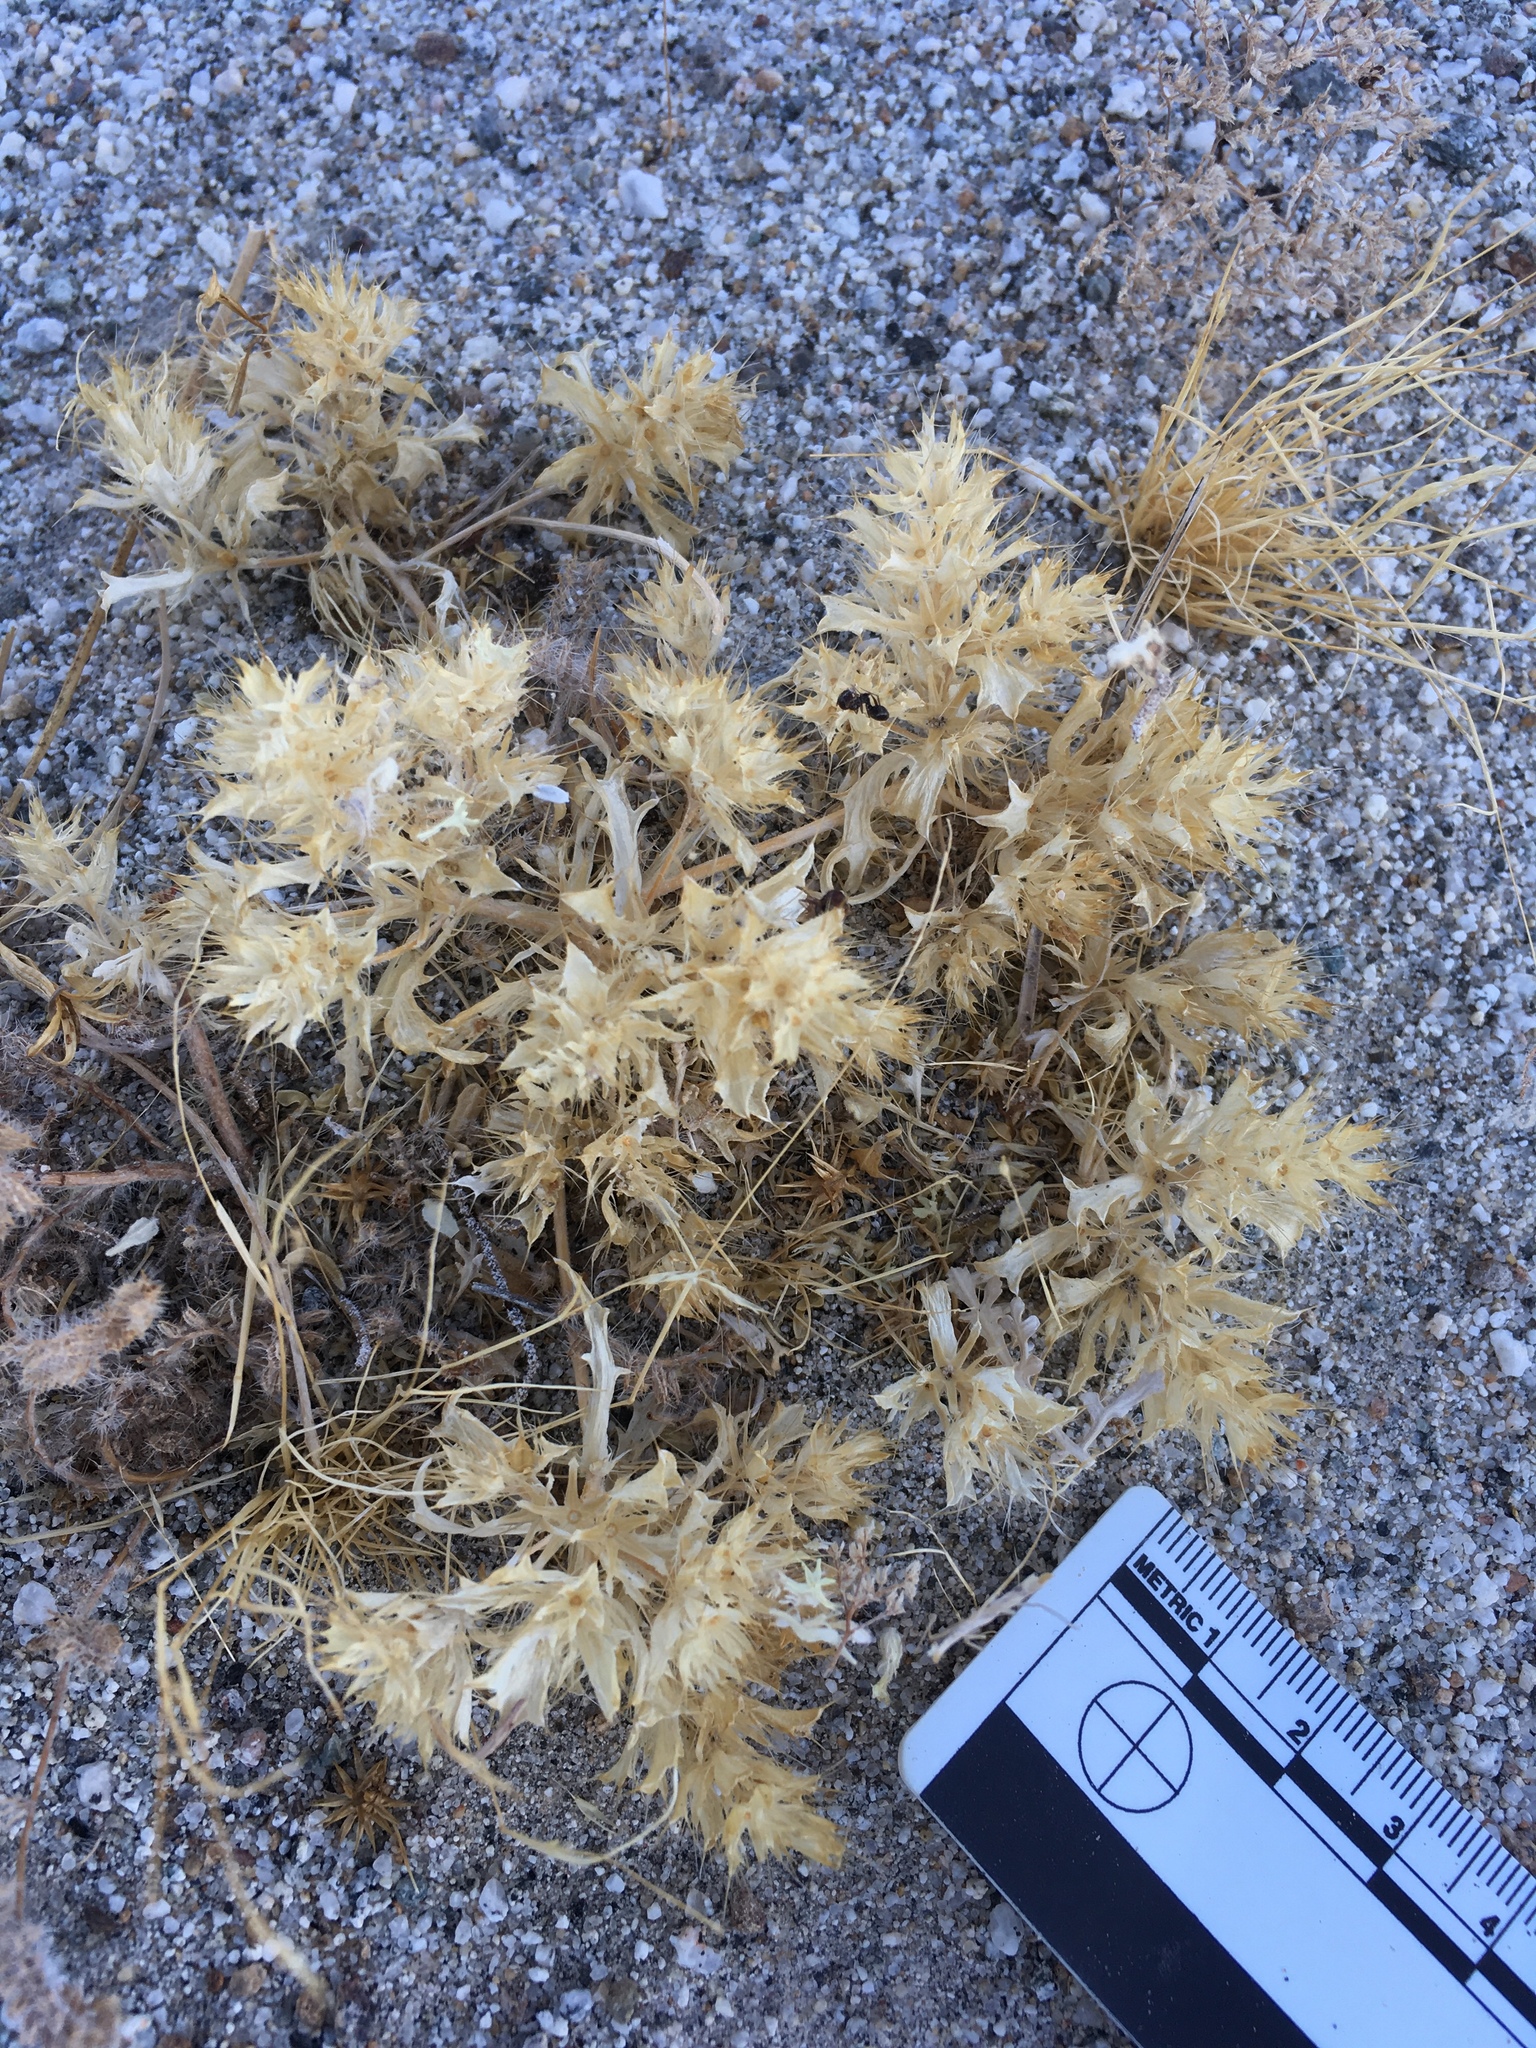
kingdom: Plantae
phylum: Tracheophyta
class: Magnoliopsida
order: Ericales
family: Polemoniaceae
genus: Langloisia
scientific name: Langloisia setosissima
